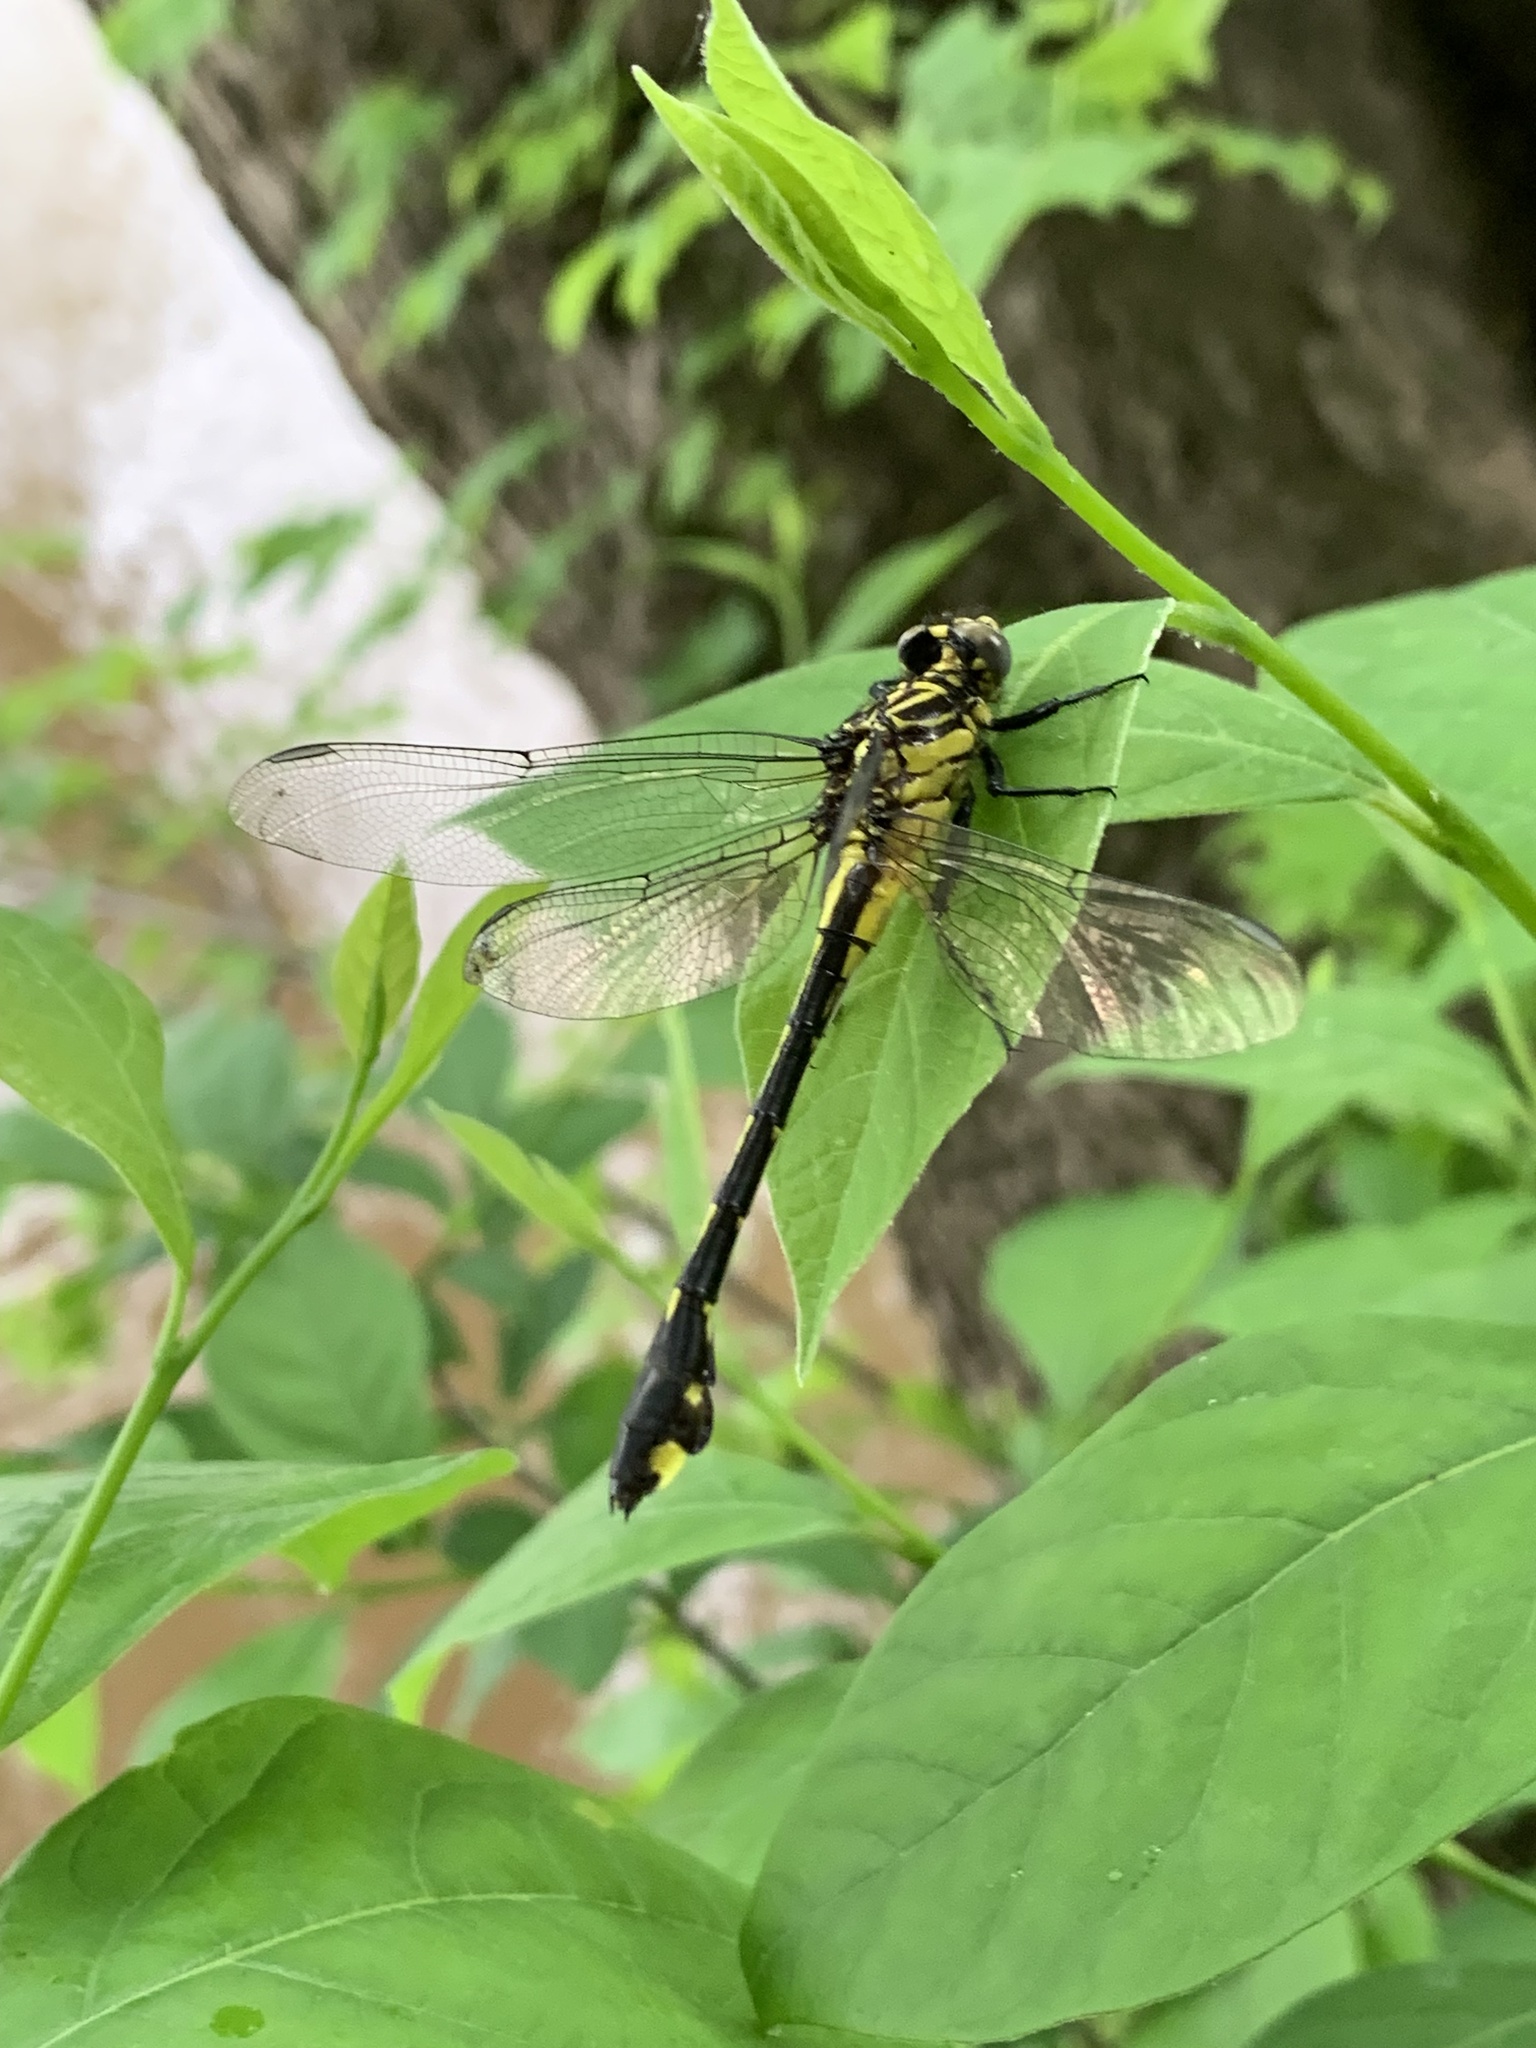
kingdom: Animalia
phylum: Arthropoda
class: Insecta
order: Odonata
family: Gomphidae
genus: Gomphurus
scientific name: Gomphurus vastus
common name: Cobra clubtail
